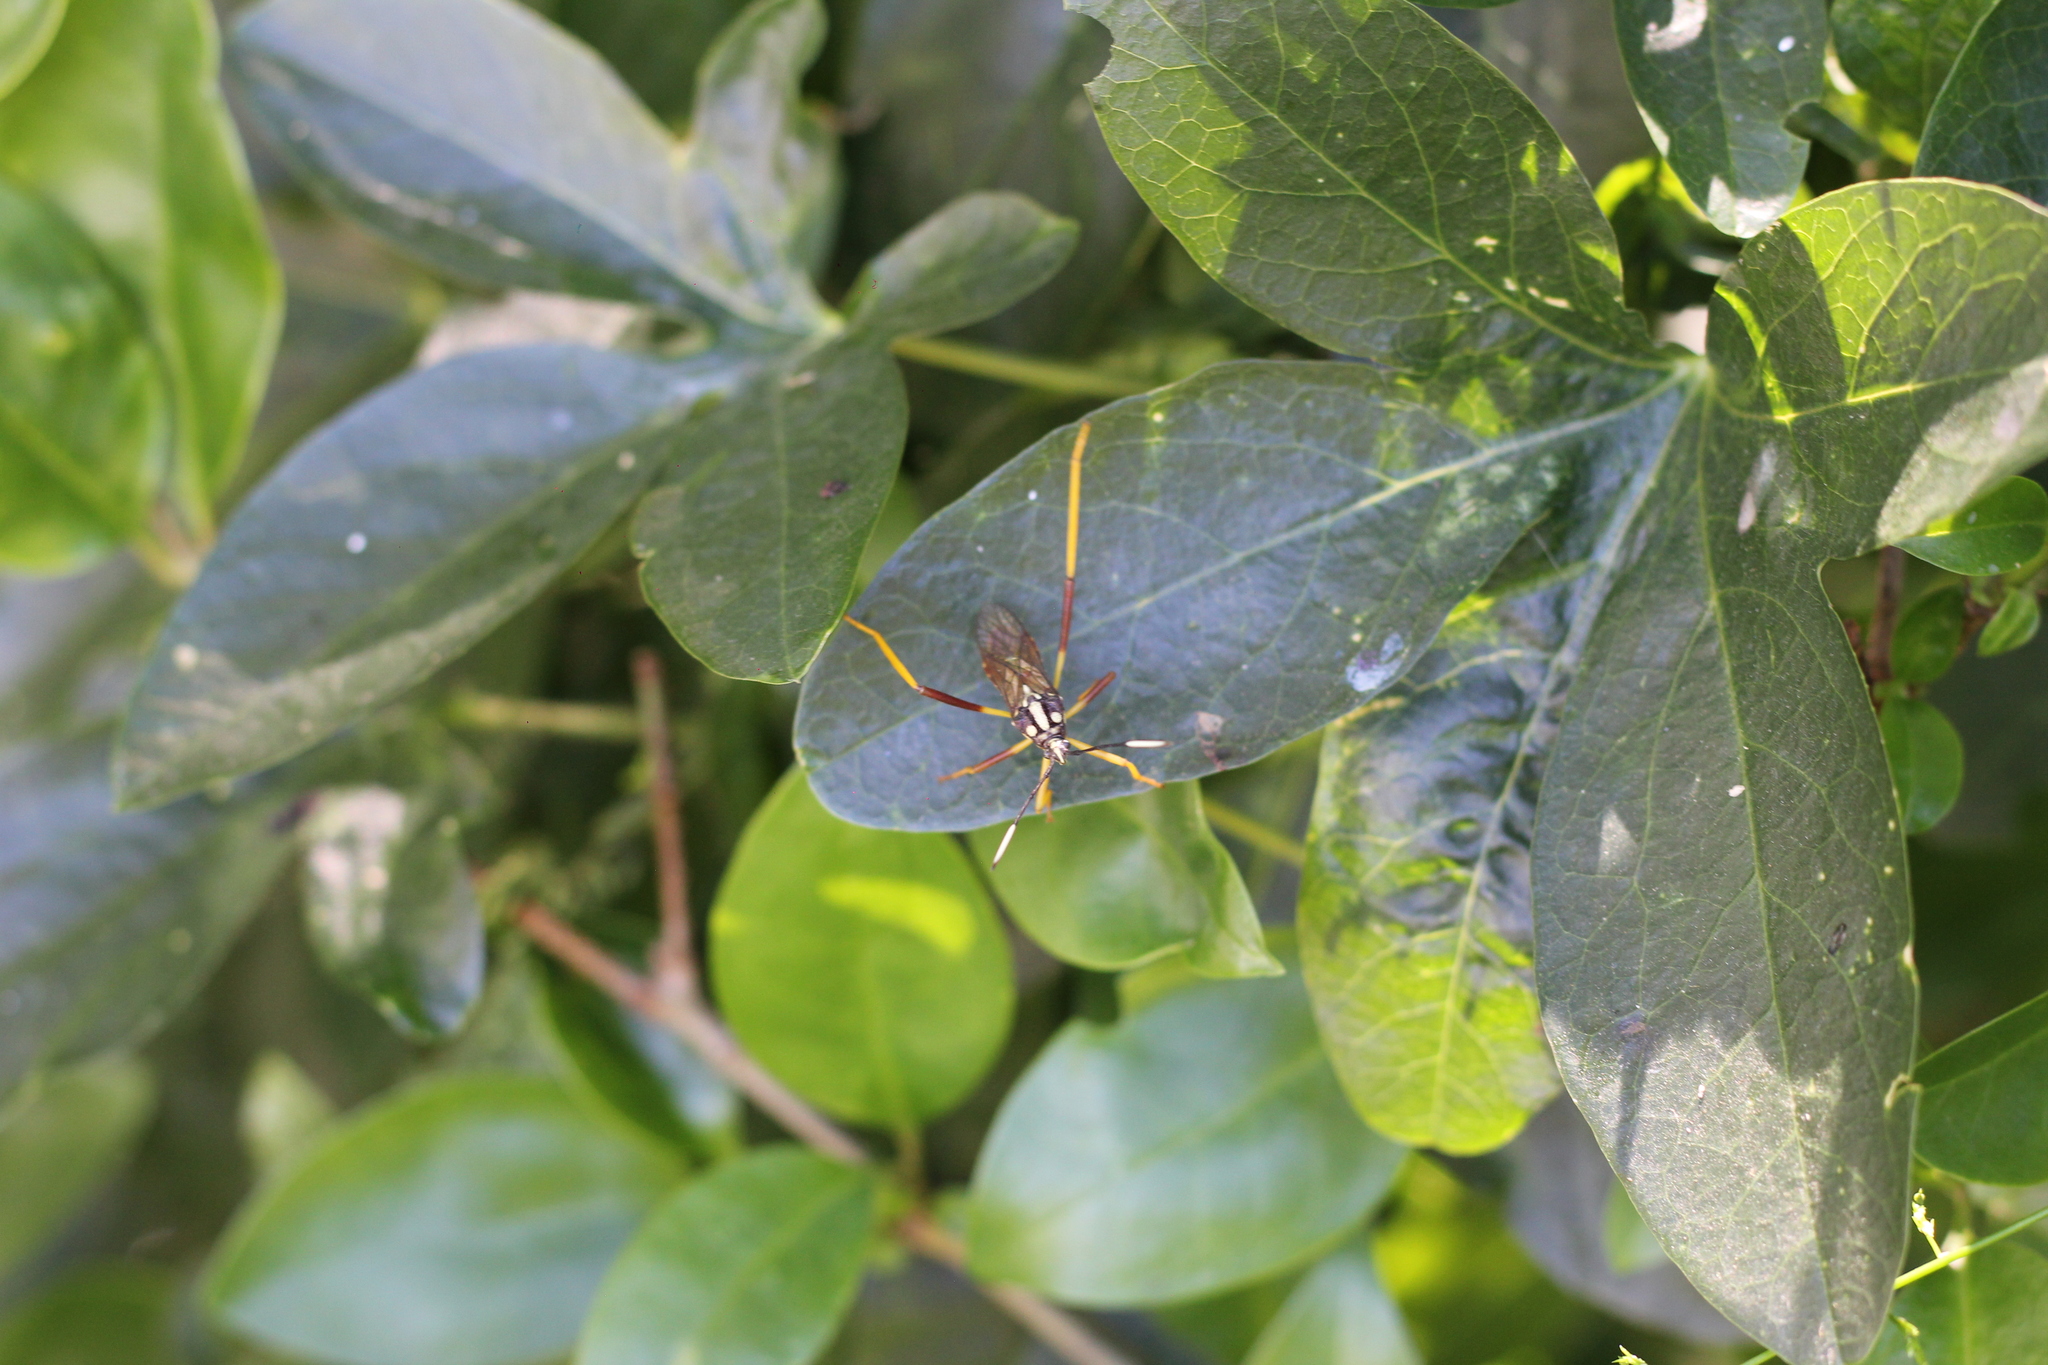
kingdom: Animalia
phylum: Arthropoda
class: Insecta
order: Hemiptera
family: Coreidae
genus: Holhymenia
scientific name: Holhymenia histrio
